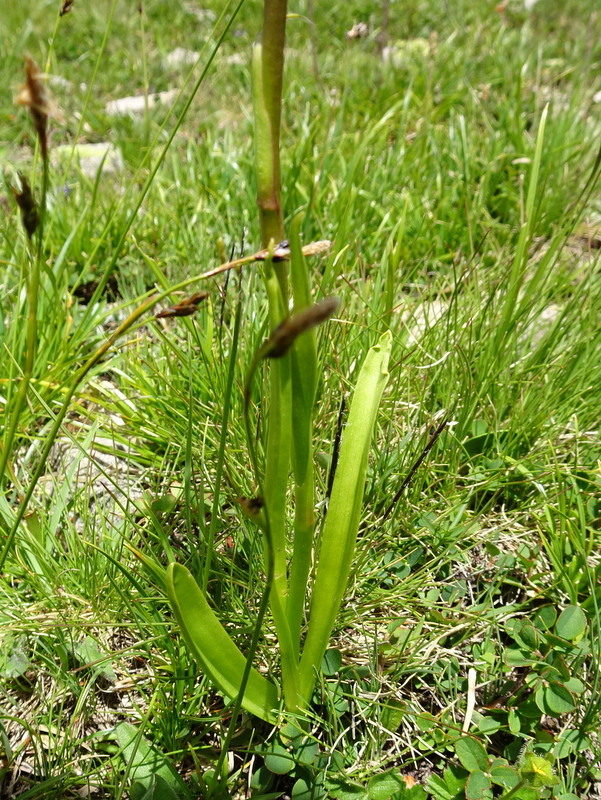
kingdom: Plantae
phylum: Tracheophyta
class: Liliopsida
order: Asparagales
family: Orchidaceae
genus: Gymnadenia
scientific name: Gymnadenia conopsea
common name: Fragrant orchid
